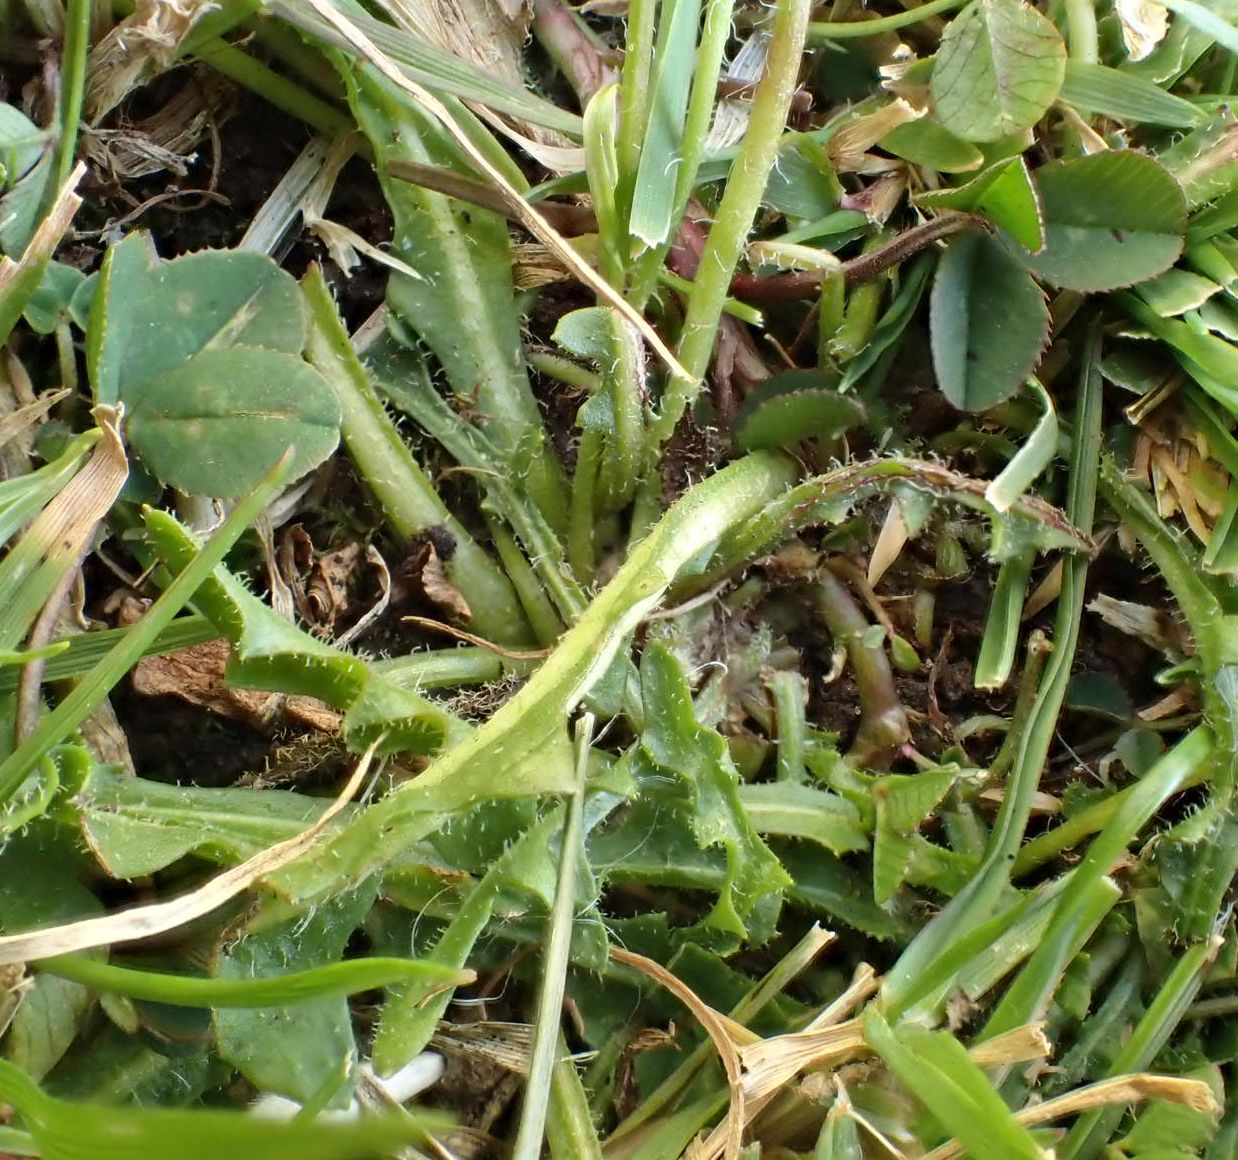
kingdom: Plantae
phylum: Tracheophyta
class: Magnoliopsida
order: Asterales
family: Asteraceae
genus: Hypochaeris
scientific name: Hypochaeris radicata
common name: Flatweed
